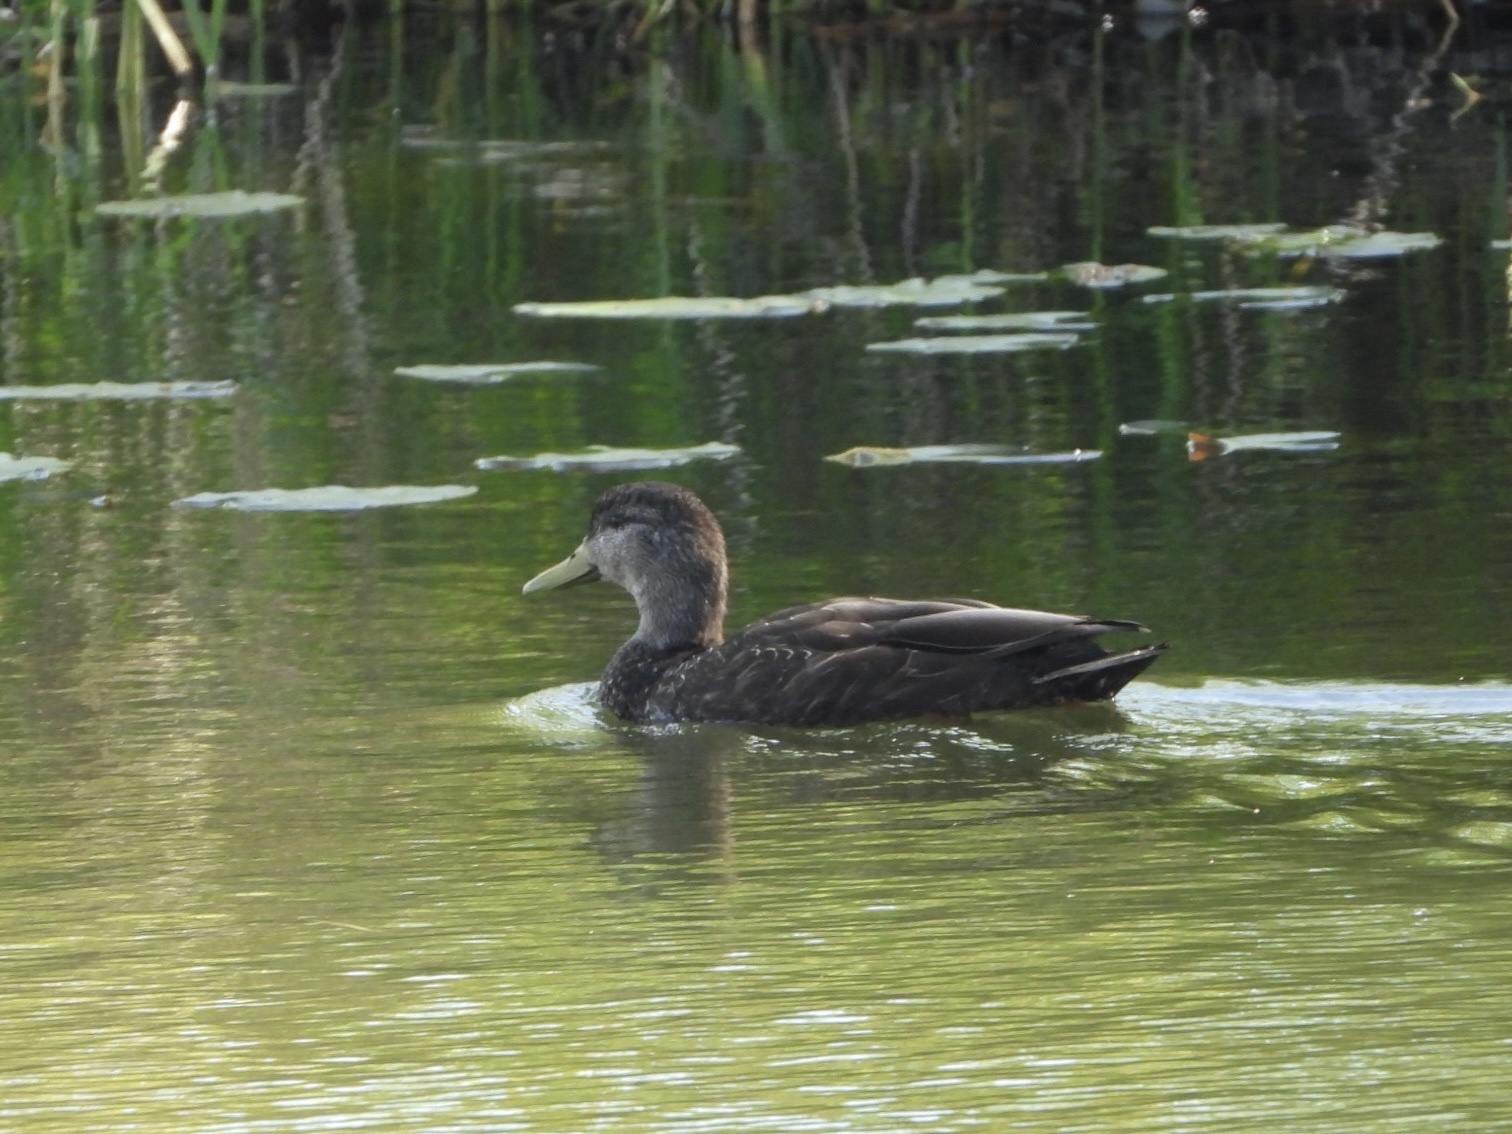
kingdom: Animalia
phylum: Chordata
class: Aves
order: Anseriformes
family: Anatidae
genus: Anas
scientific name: Anas rubripes
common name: American black duck
